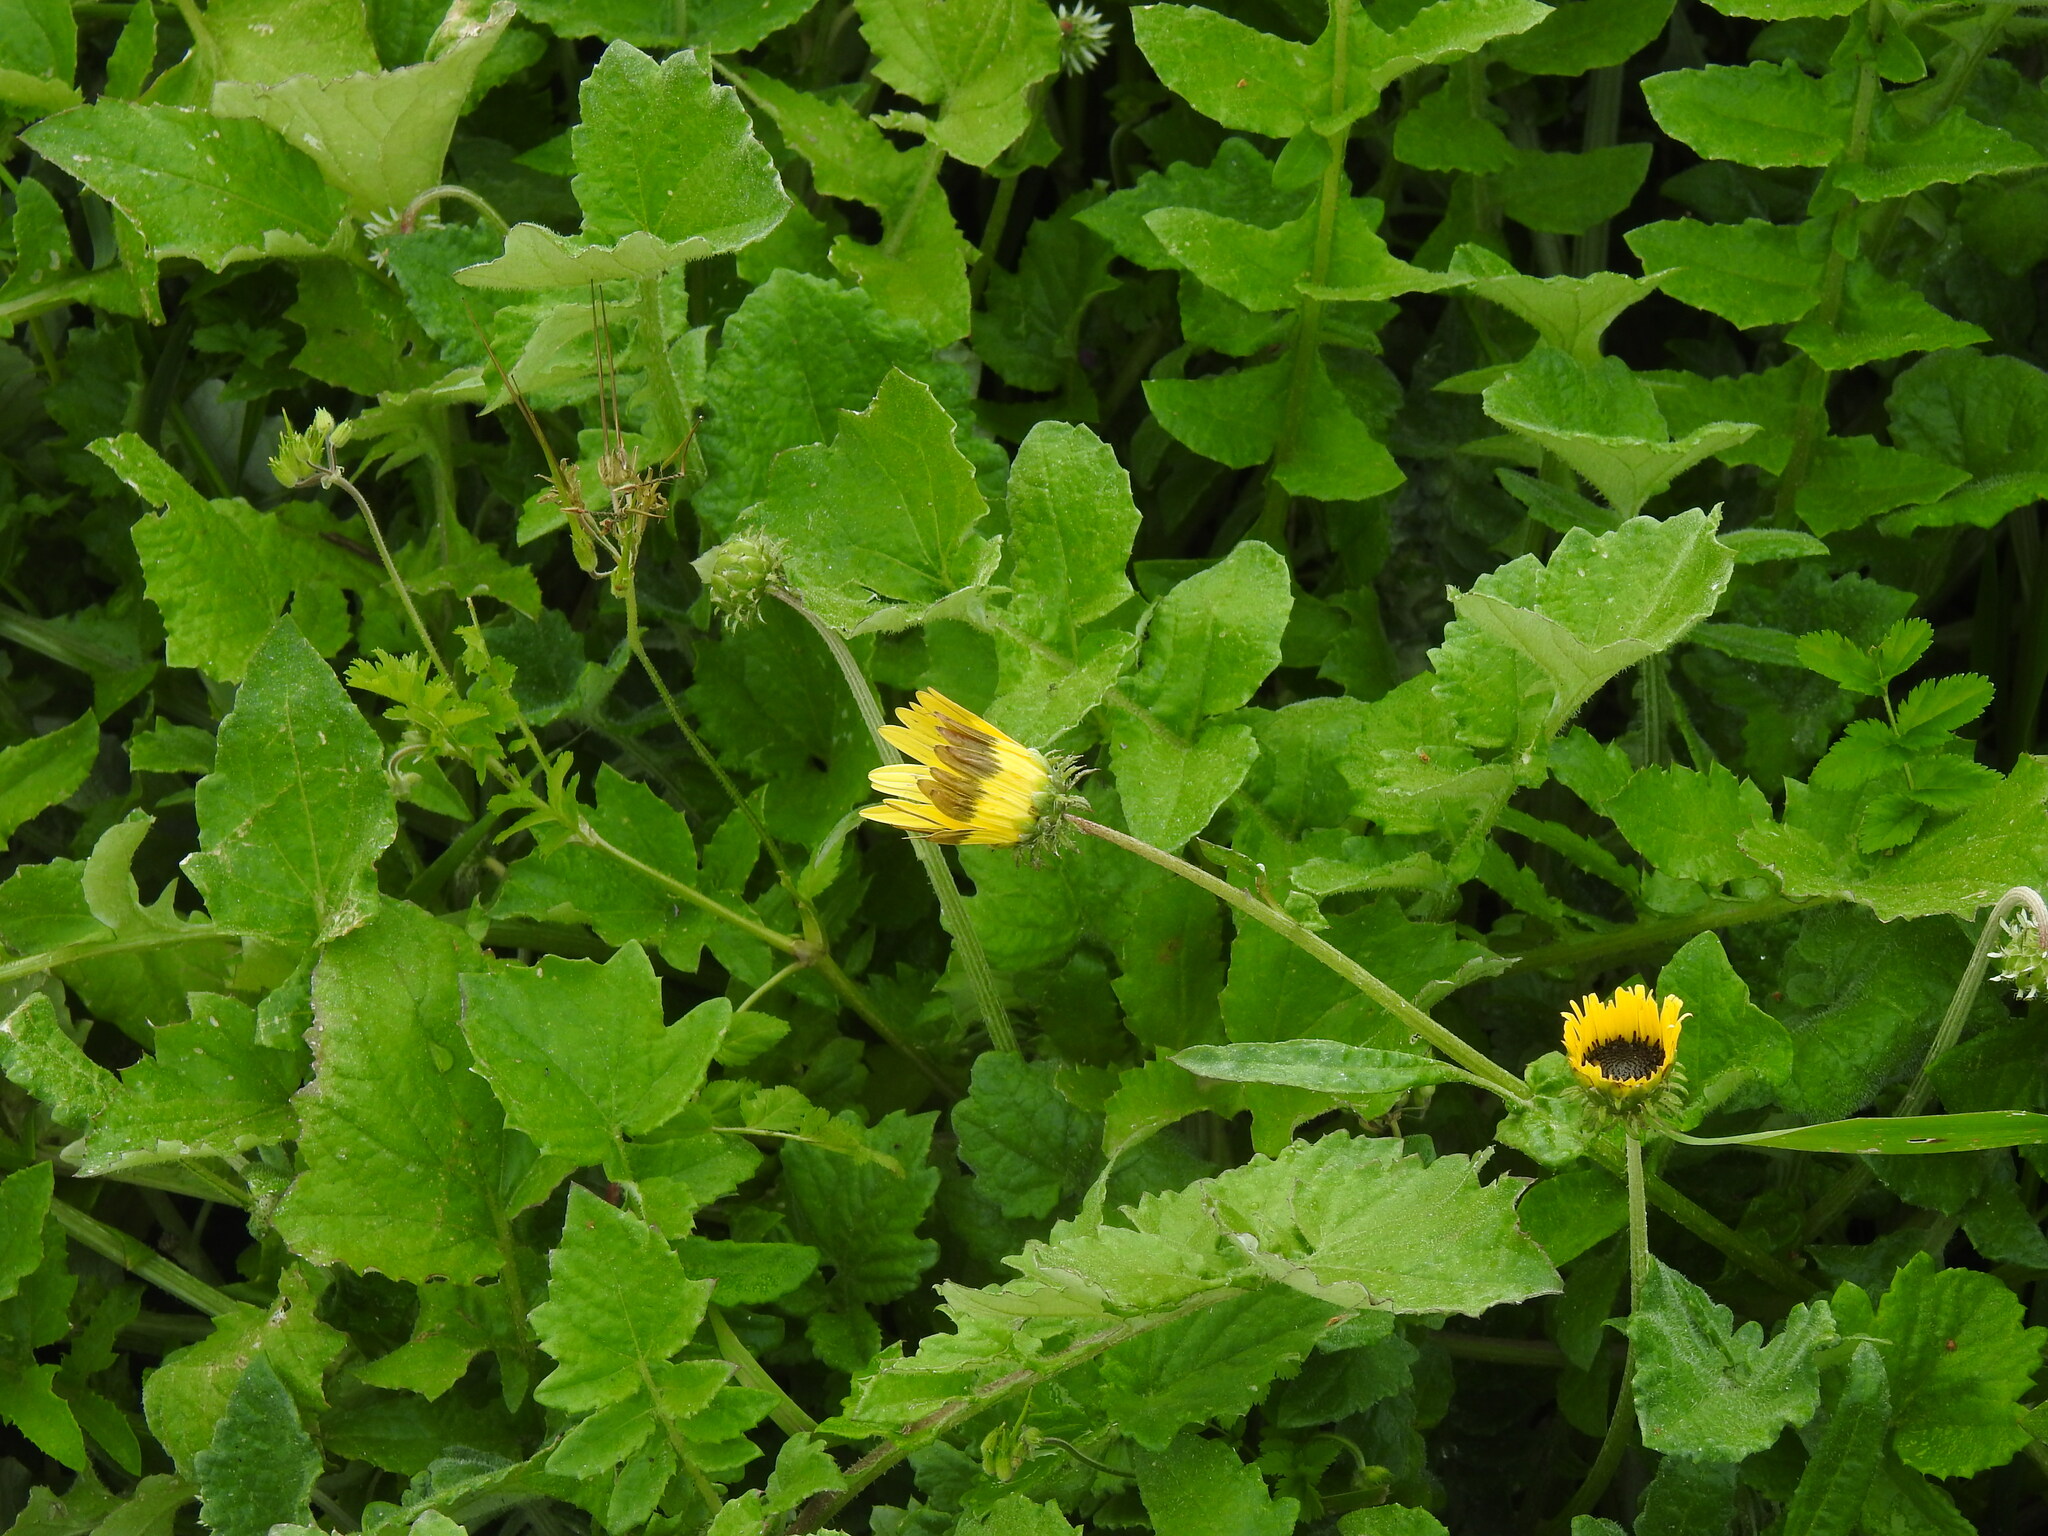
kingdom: Plantae
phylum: Tracheophyta
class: Magnoliopsida
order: Asterales
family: Asteraceae
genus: Arctotheca
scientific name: Arctotheca calendula
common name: Capeweed
